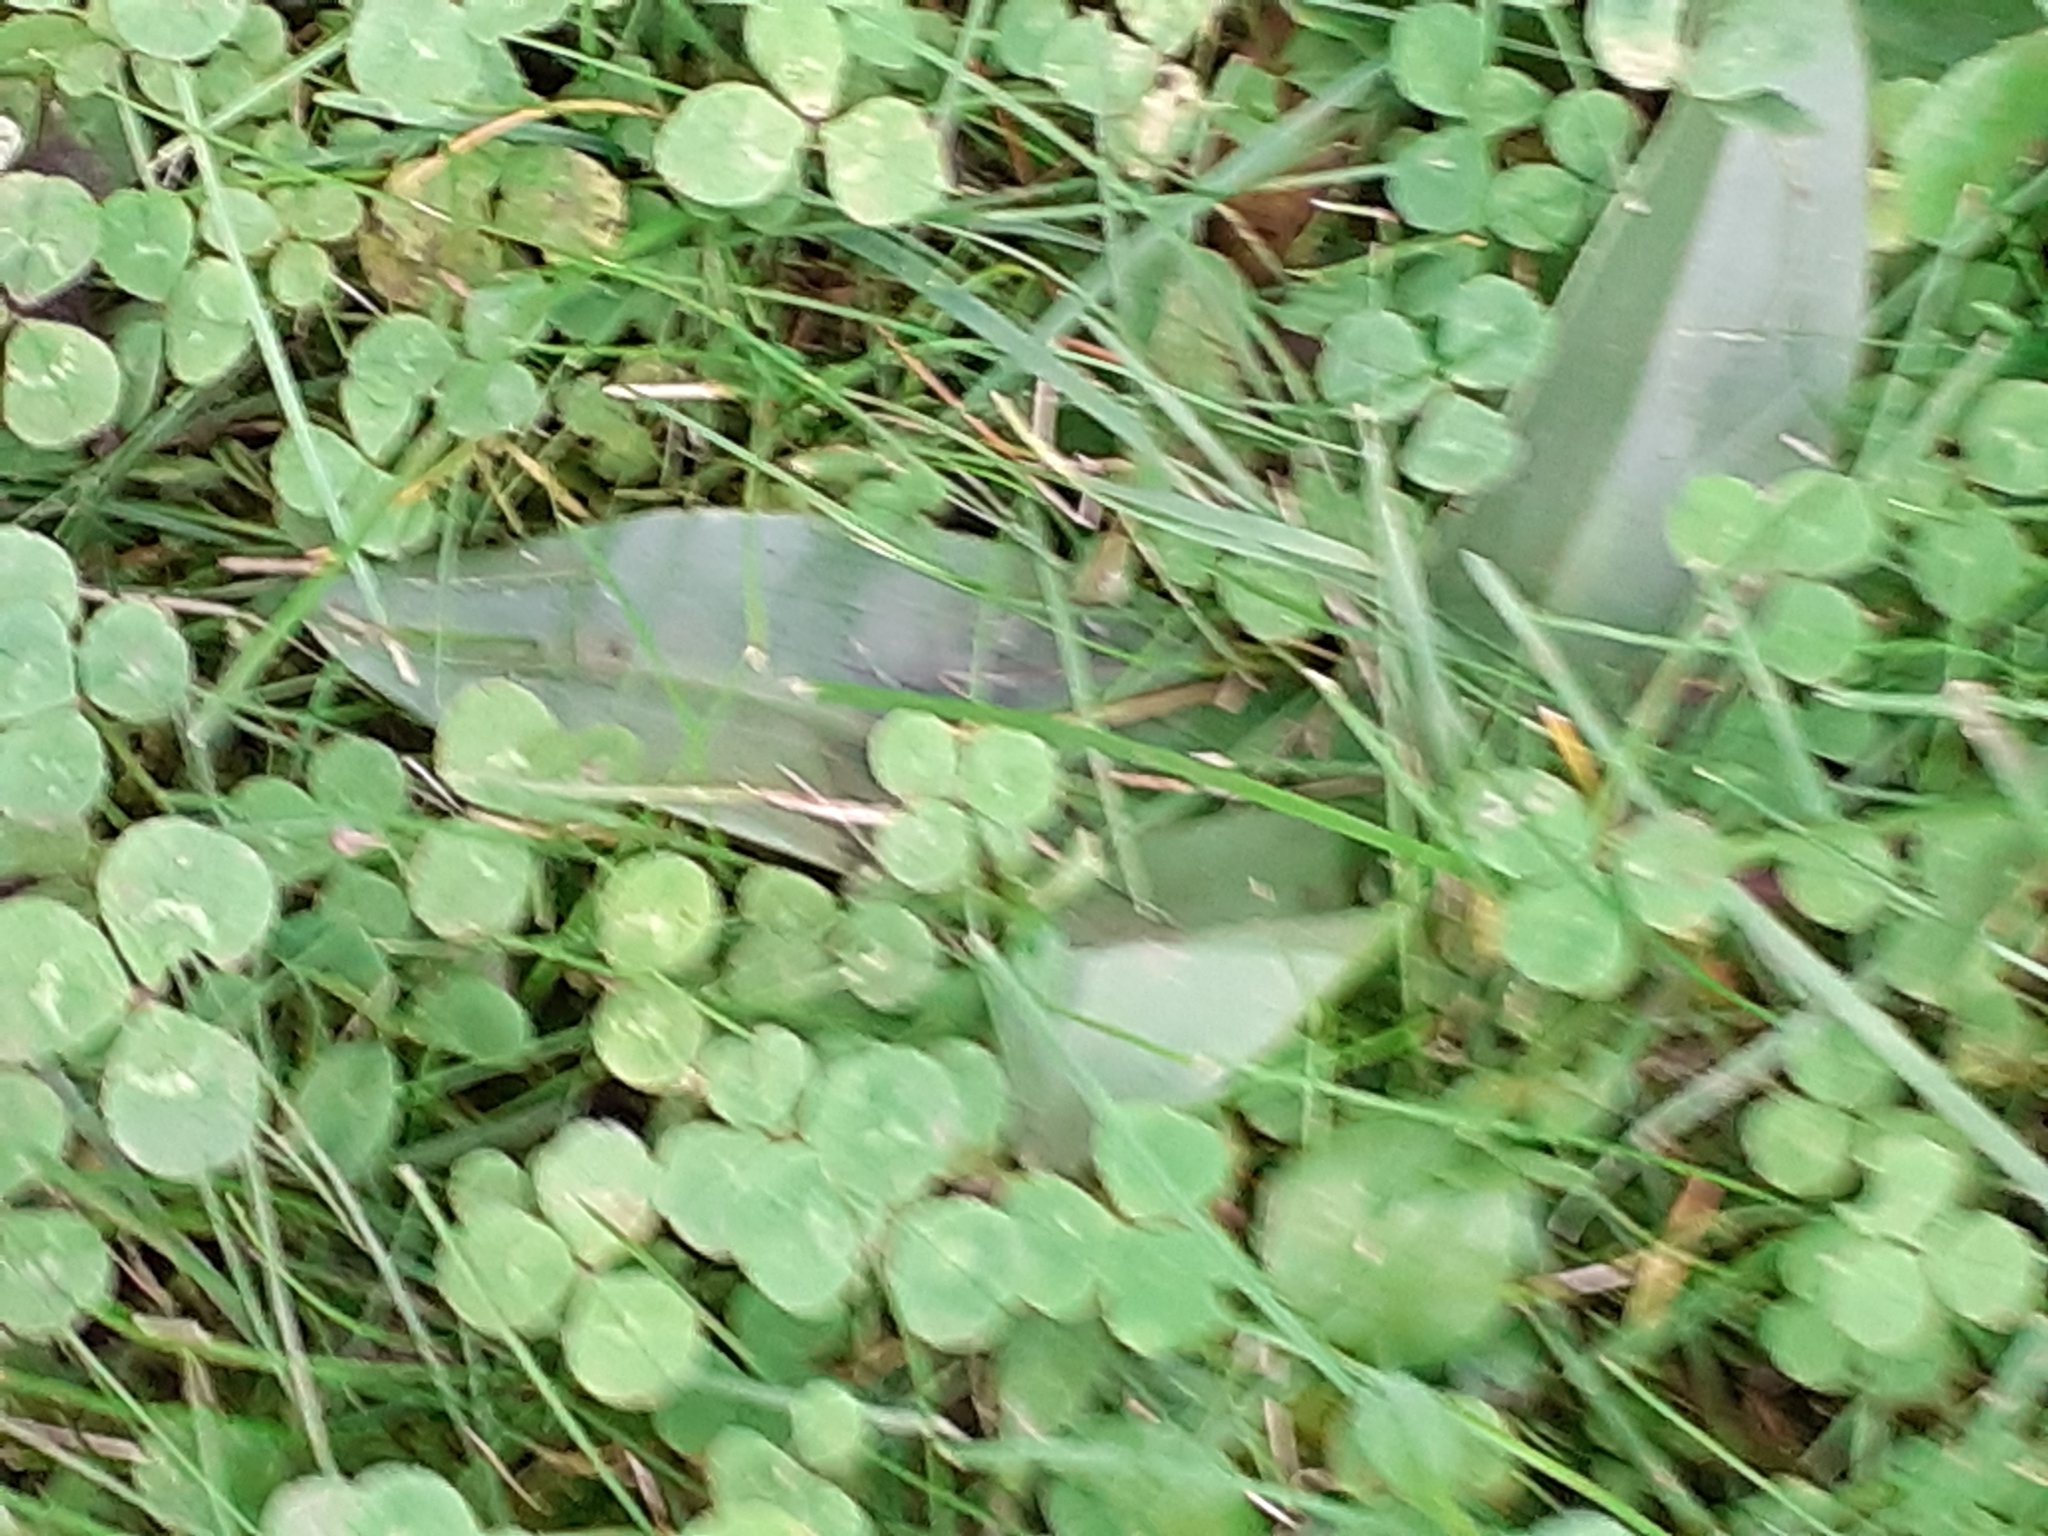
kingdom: Plantae
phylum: Tracheophyta
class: Liliopsida
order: Asparagales
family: Orchidaceae
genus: Ophrys
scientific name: Ophrys apifera
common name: Bee orchid
